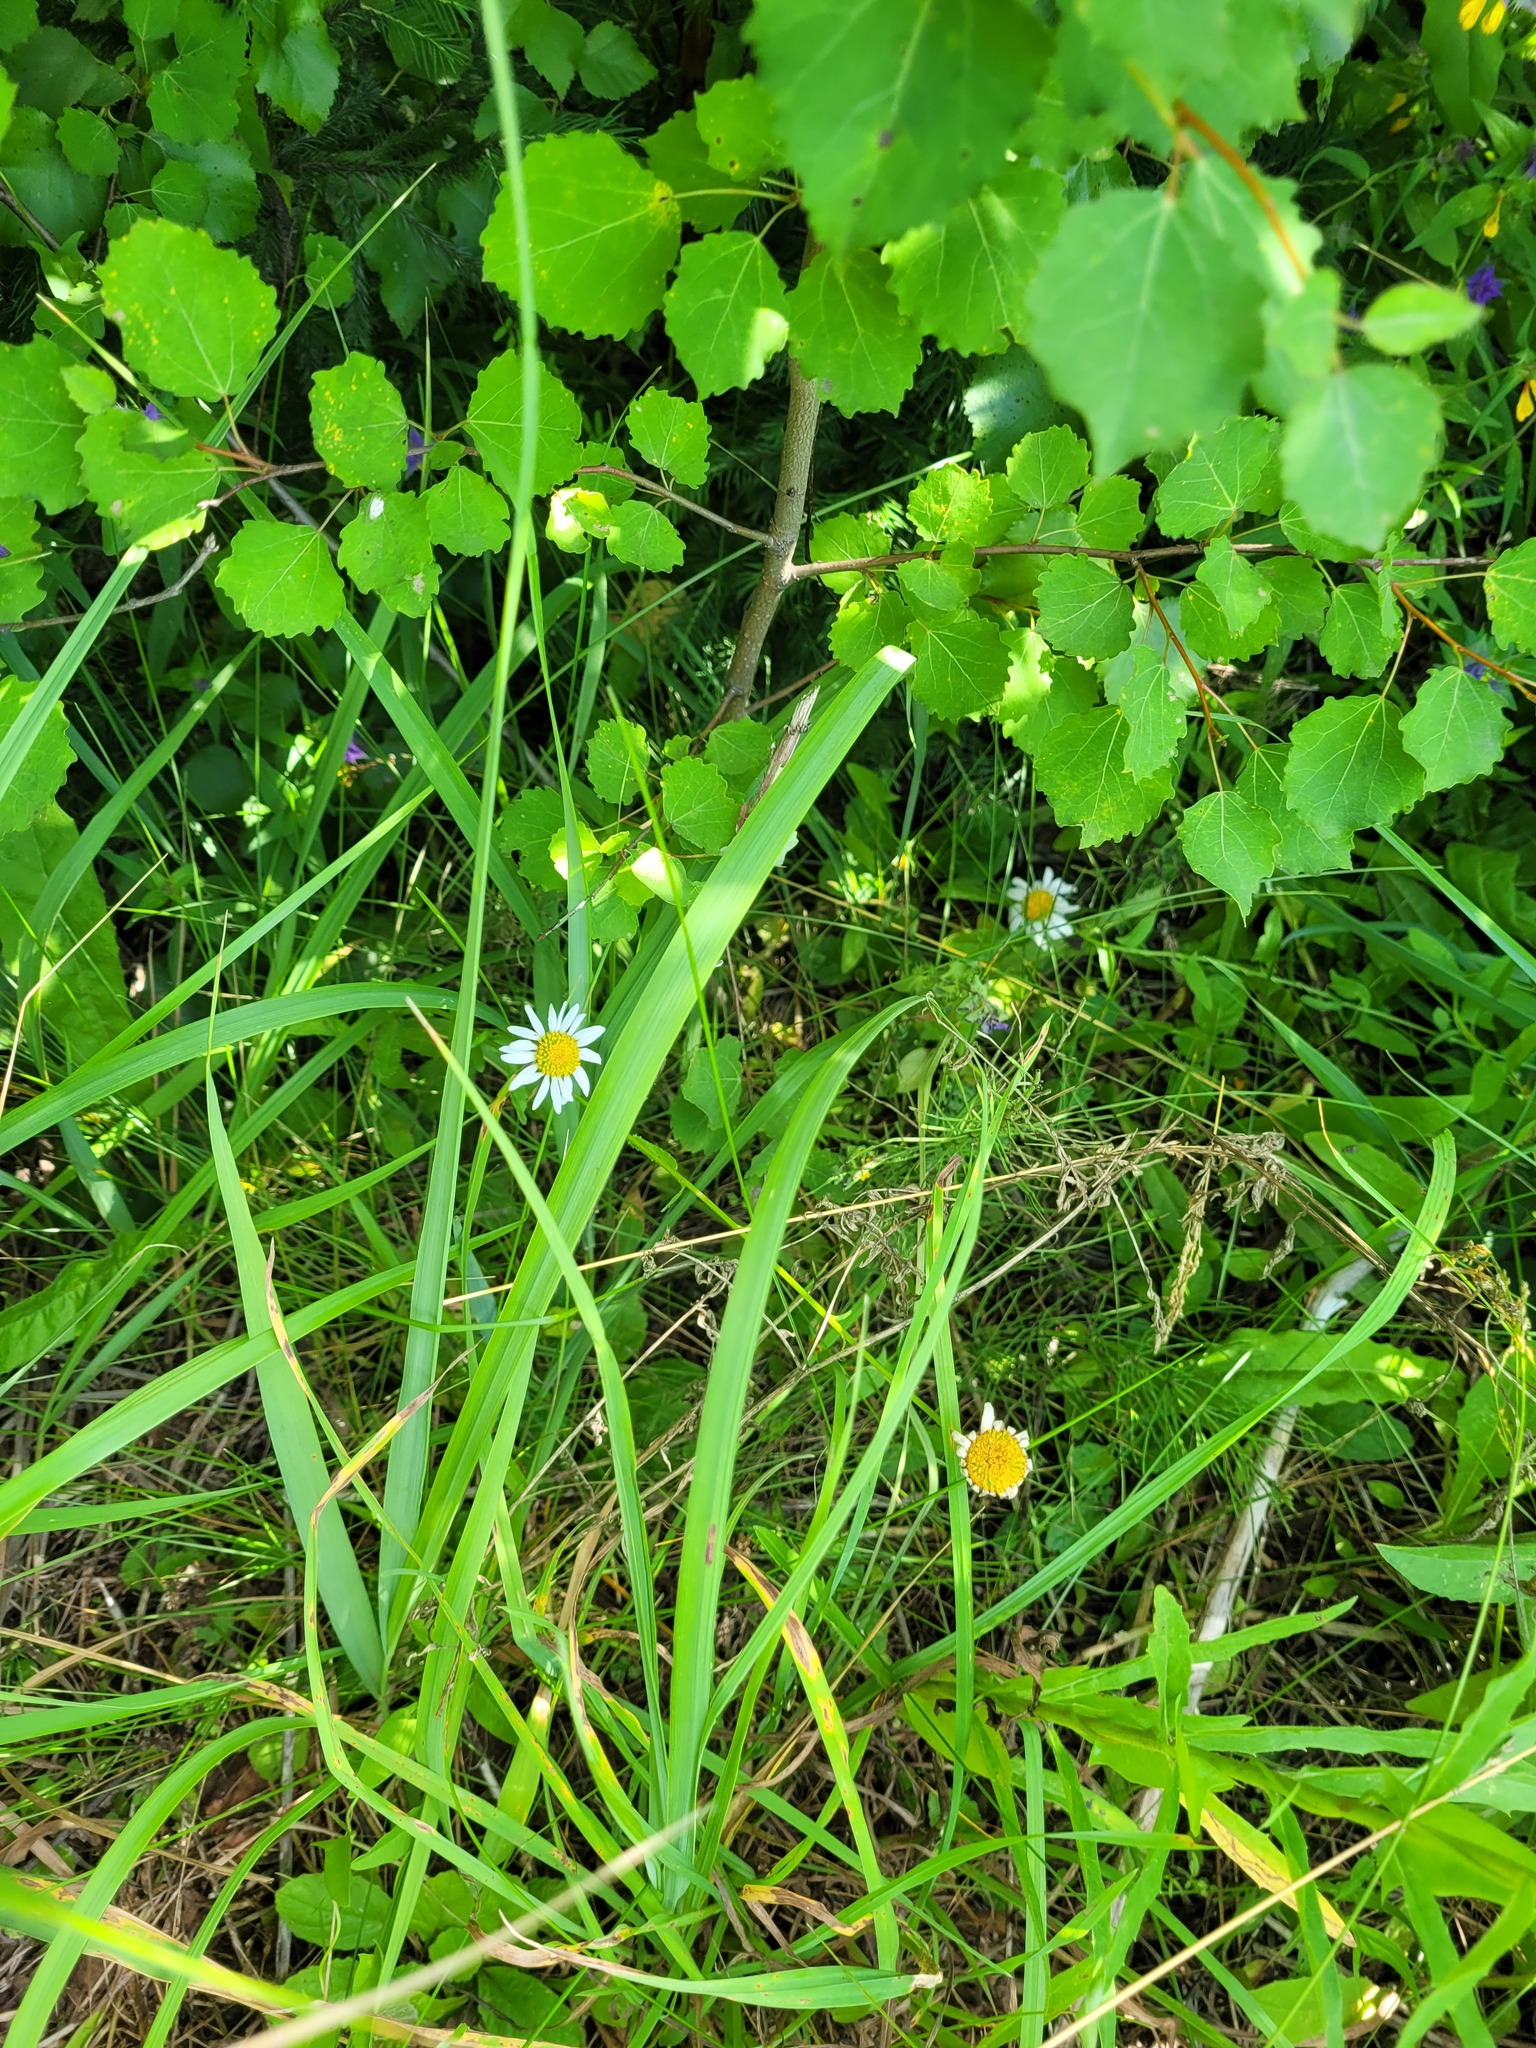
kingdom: Plantae
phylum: Tracheophyta
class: Magnoliopsida
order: Asterales
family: Asteraceae
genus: Leucanthemum
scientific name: Leucanthemum vulgare
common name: Oxeye daisy
